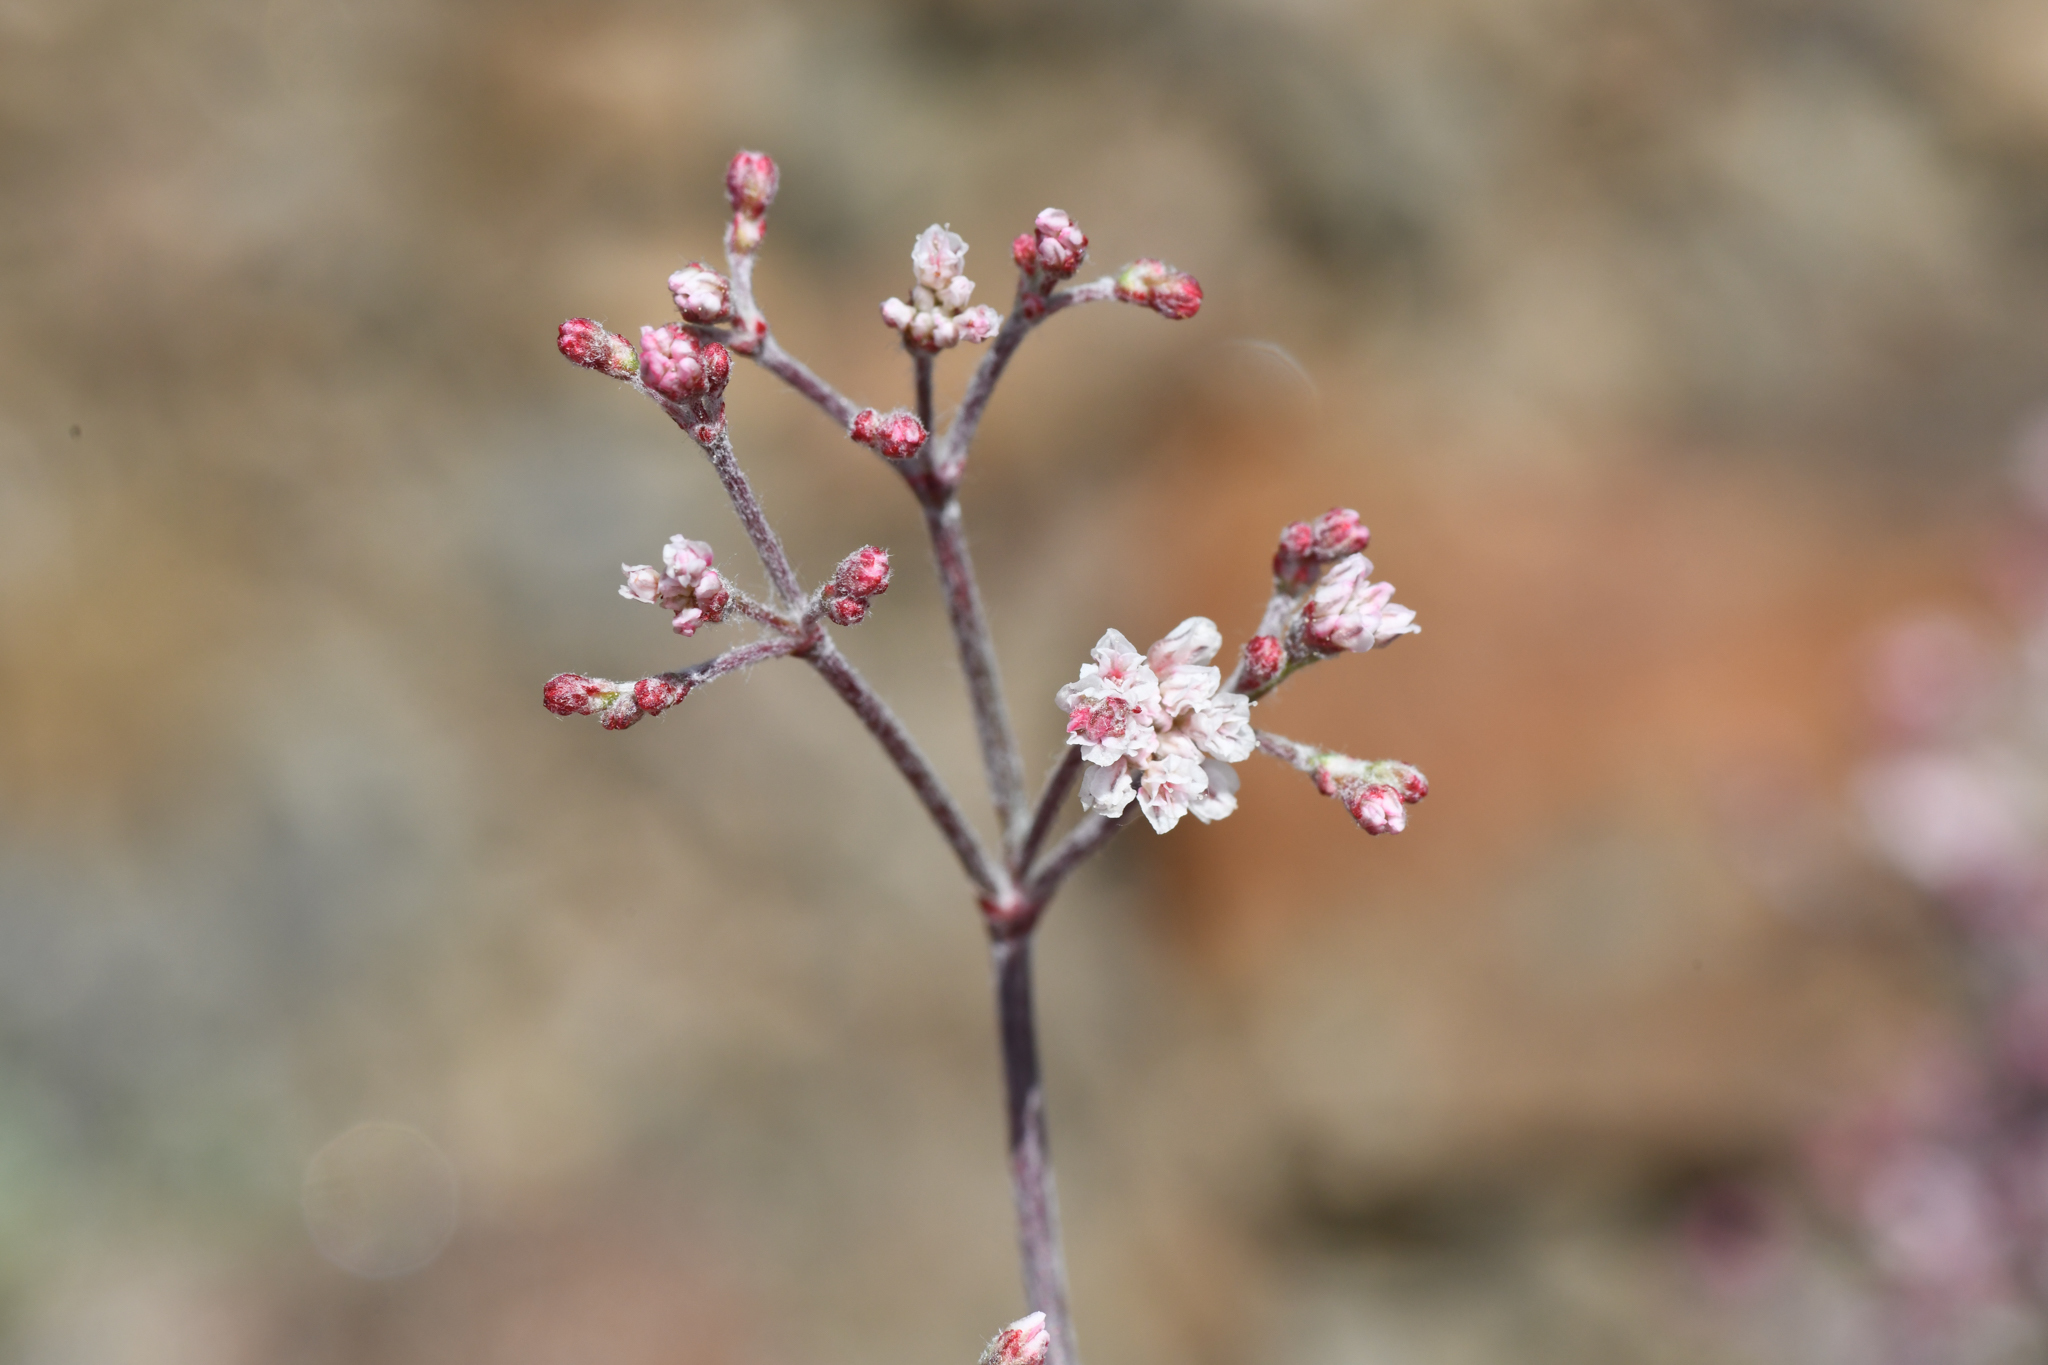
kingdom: Plantae
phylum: Tracheophyta
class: Magnoliopsida
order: Caryophyllales
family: Polygonaceae
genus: Eriogonum
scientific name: Eriogonum microtheca
